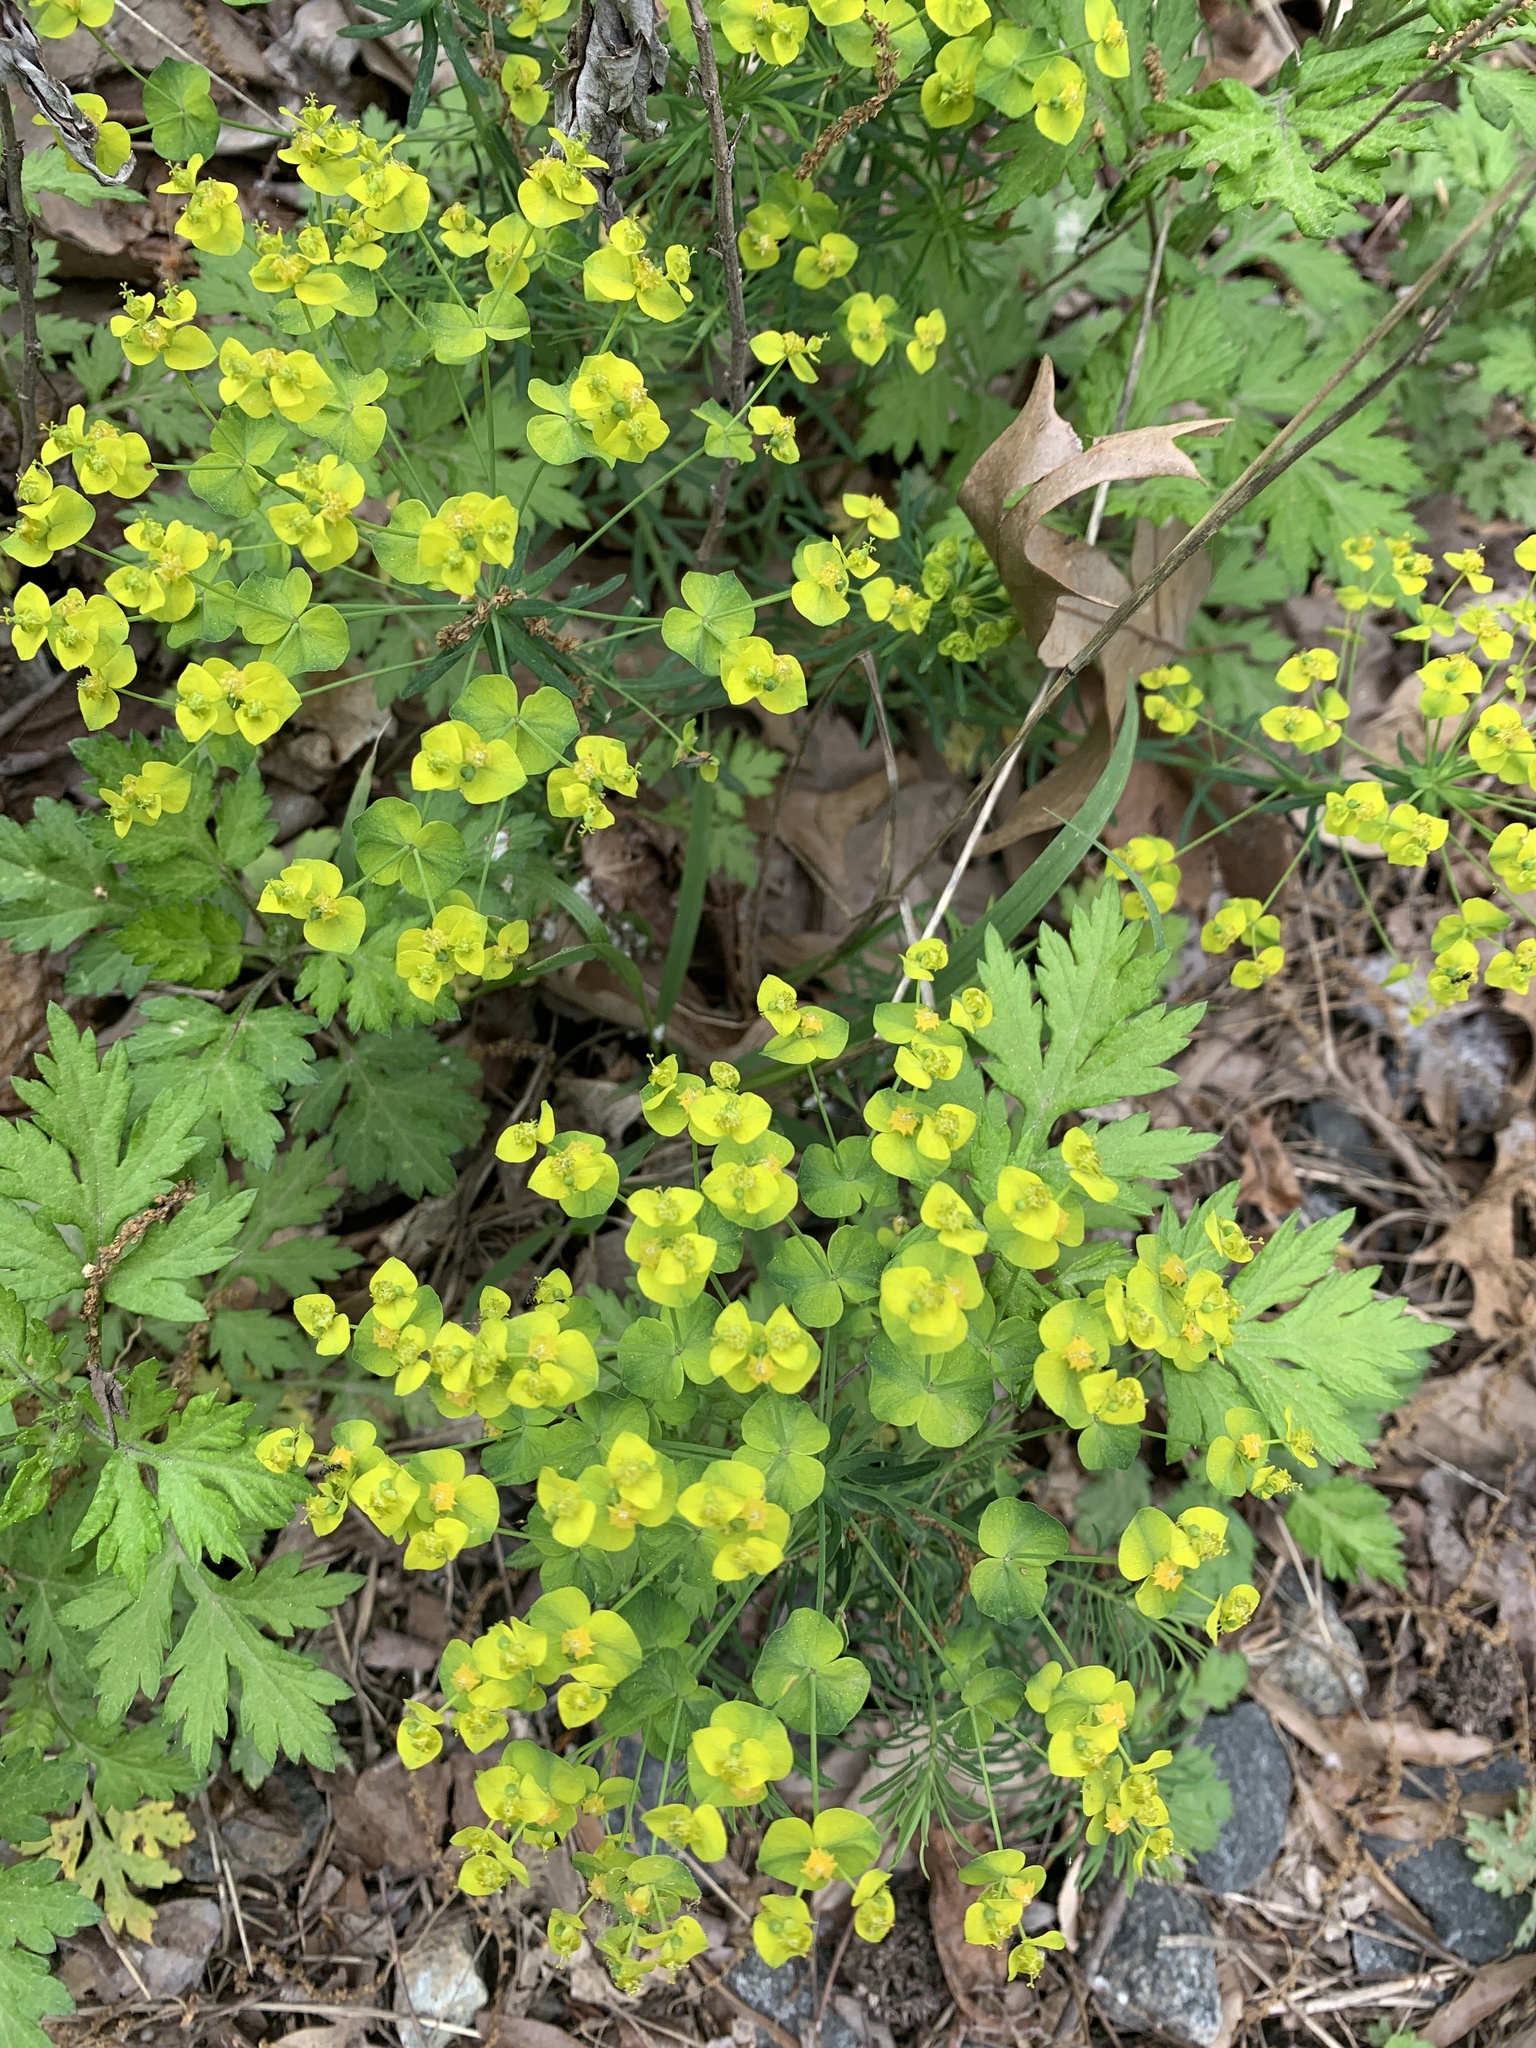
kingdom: Plantae
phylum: Tracheophyta
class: Magnoliopsida
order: Malpighiales
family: Euphorbiaceae
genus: Euphorbia
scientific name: Euphorbia cyparissias
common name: Cypress spurge
